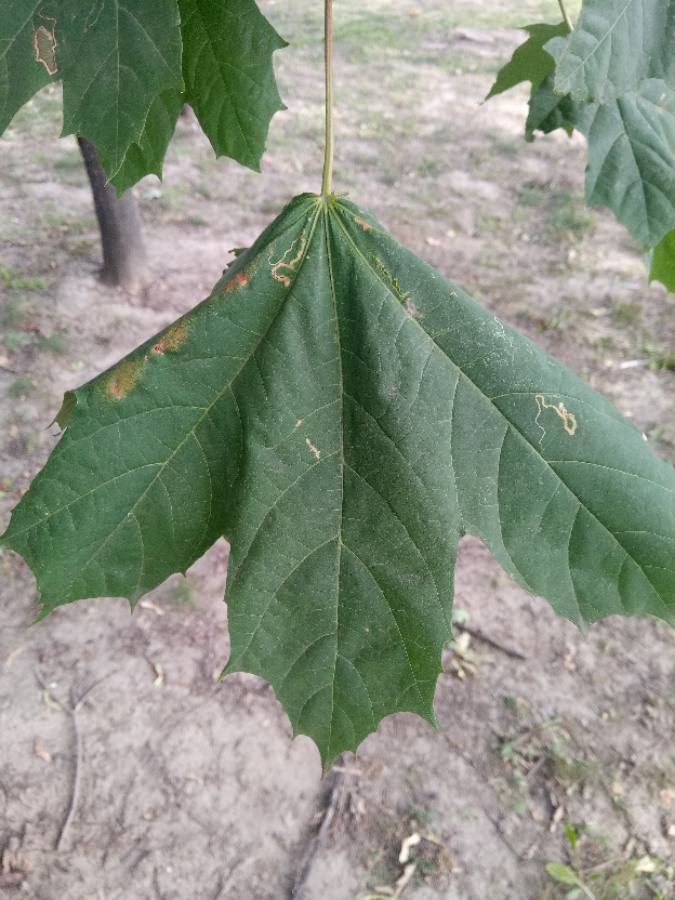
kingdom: Plantae
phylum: Tracheophyta
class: Magnoliopsida
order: Sapindales
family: Sapindaceae
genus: Acer
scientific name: Acer platanoides
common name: Norway maple
